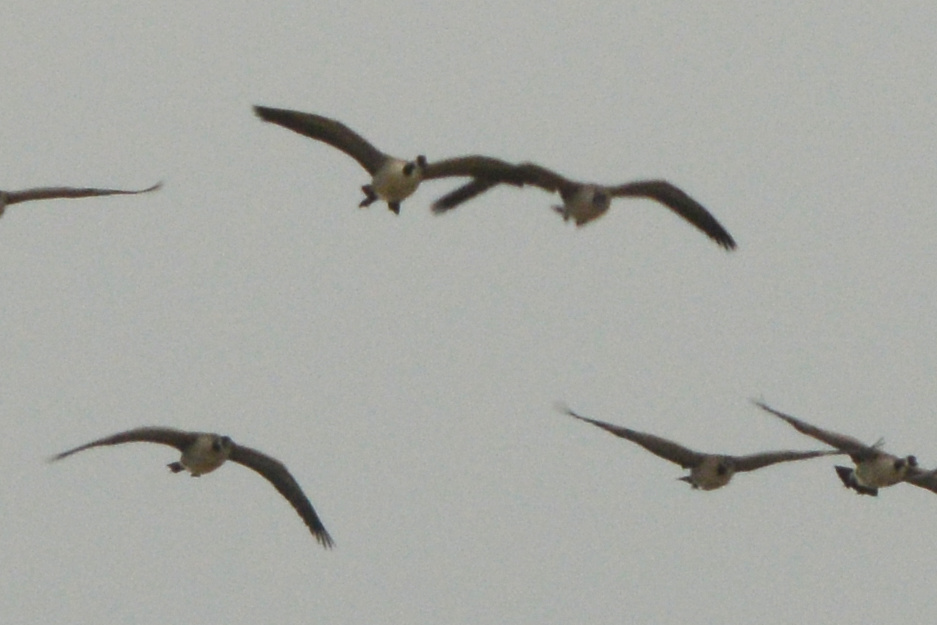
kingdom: Animalia
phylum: Chordata
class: Aves
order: Anseriformes
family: Anatidae
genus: Branta
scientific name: Branta canadensis
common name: Canada goose
